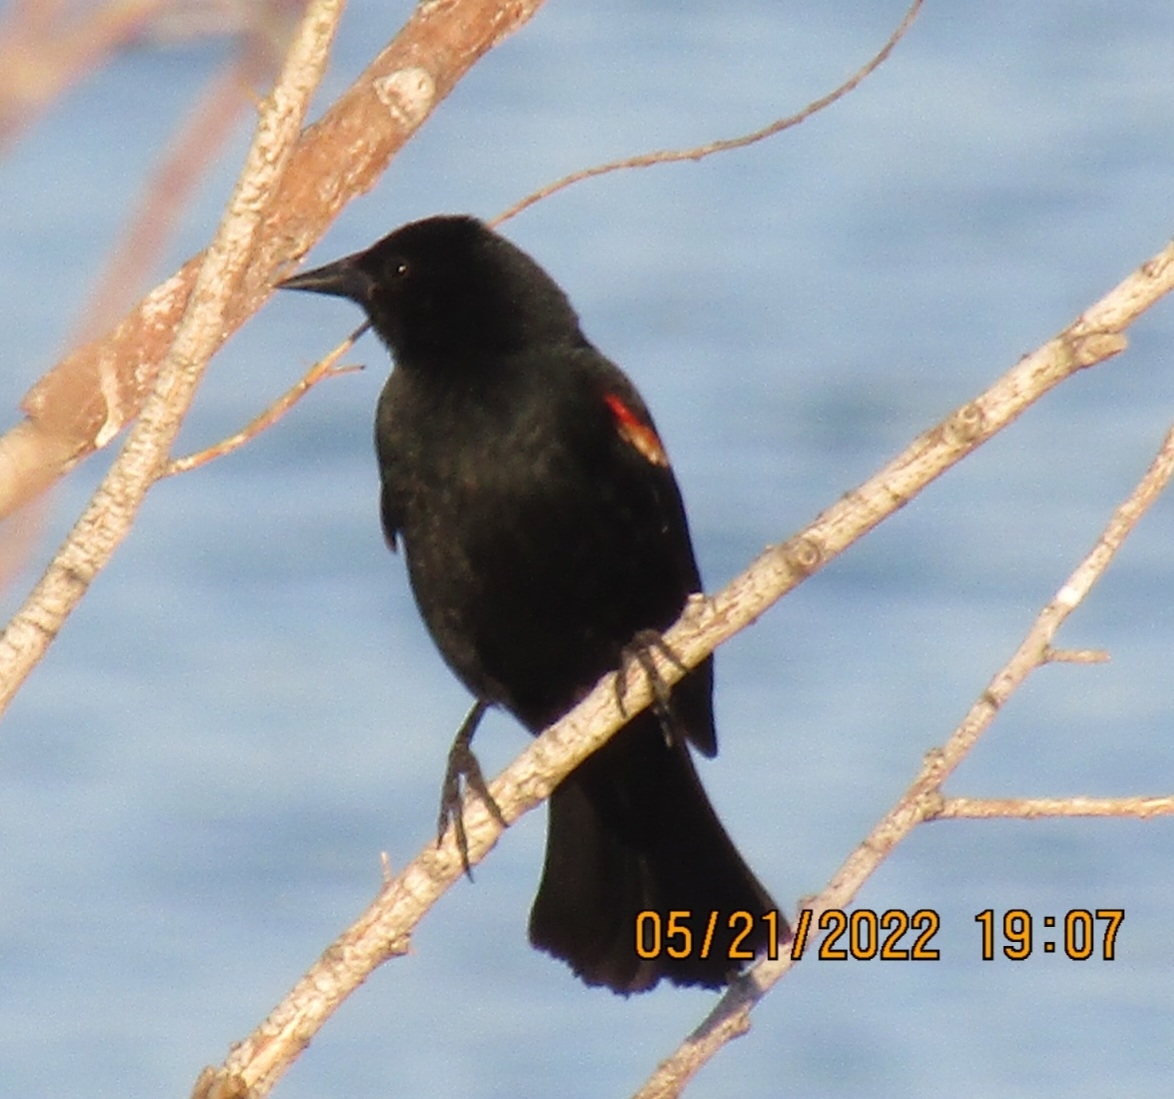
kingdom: Animalia
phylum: Chordata
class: Aves
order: Passeriformes
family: Icteridae
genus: Agelaius
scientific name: Agelaius phoeniceus
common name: Red-winged blackbird
